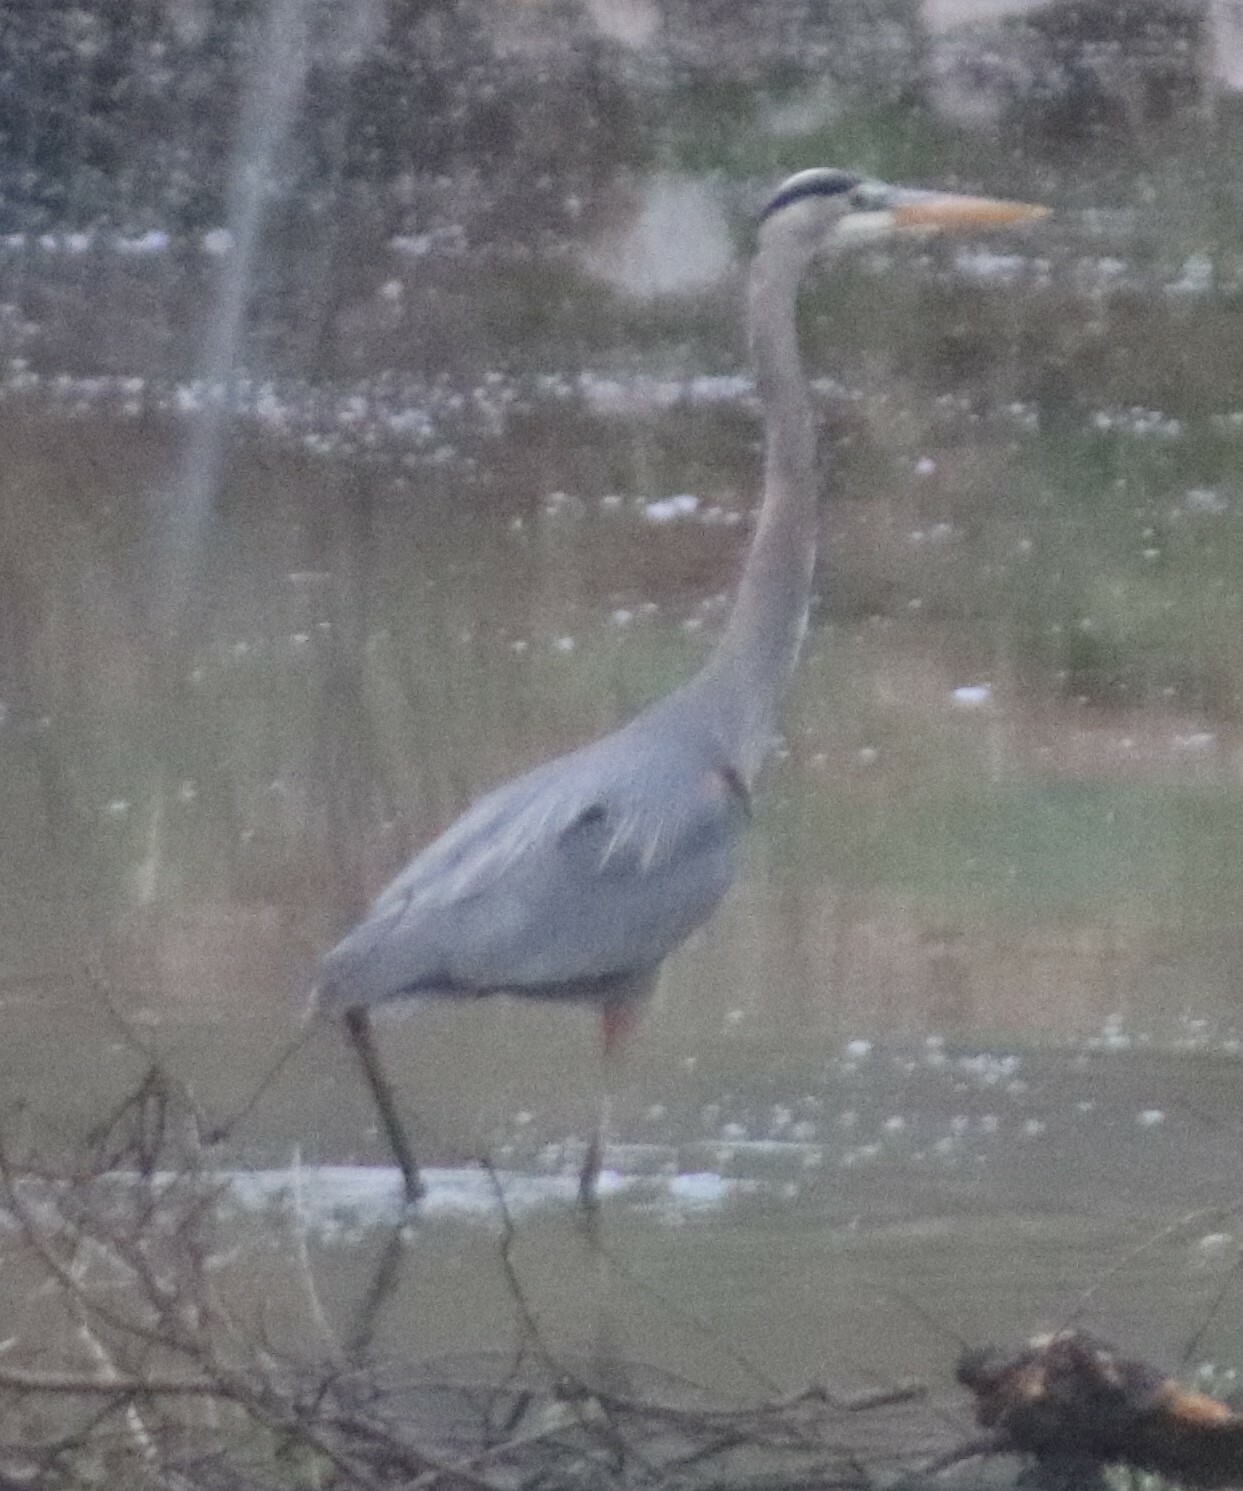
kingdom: Animalia
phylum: Chordata
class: Aves
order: Pelecaniformes
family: Ardeidae
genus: Ardea
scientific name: Ardea herodias
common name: Great blue heron
